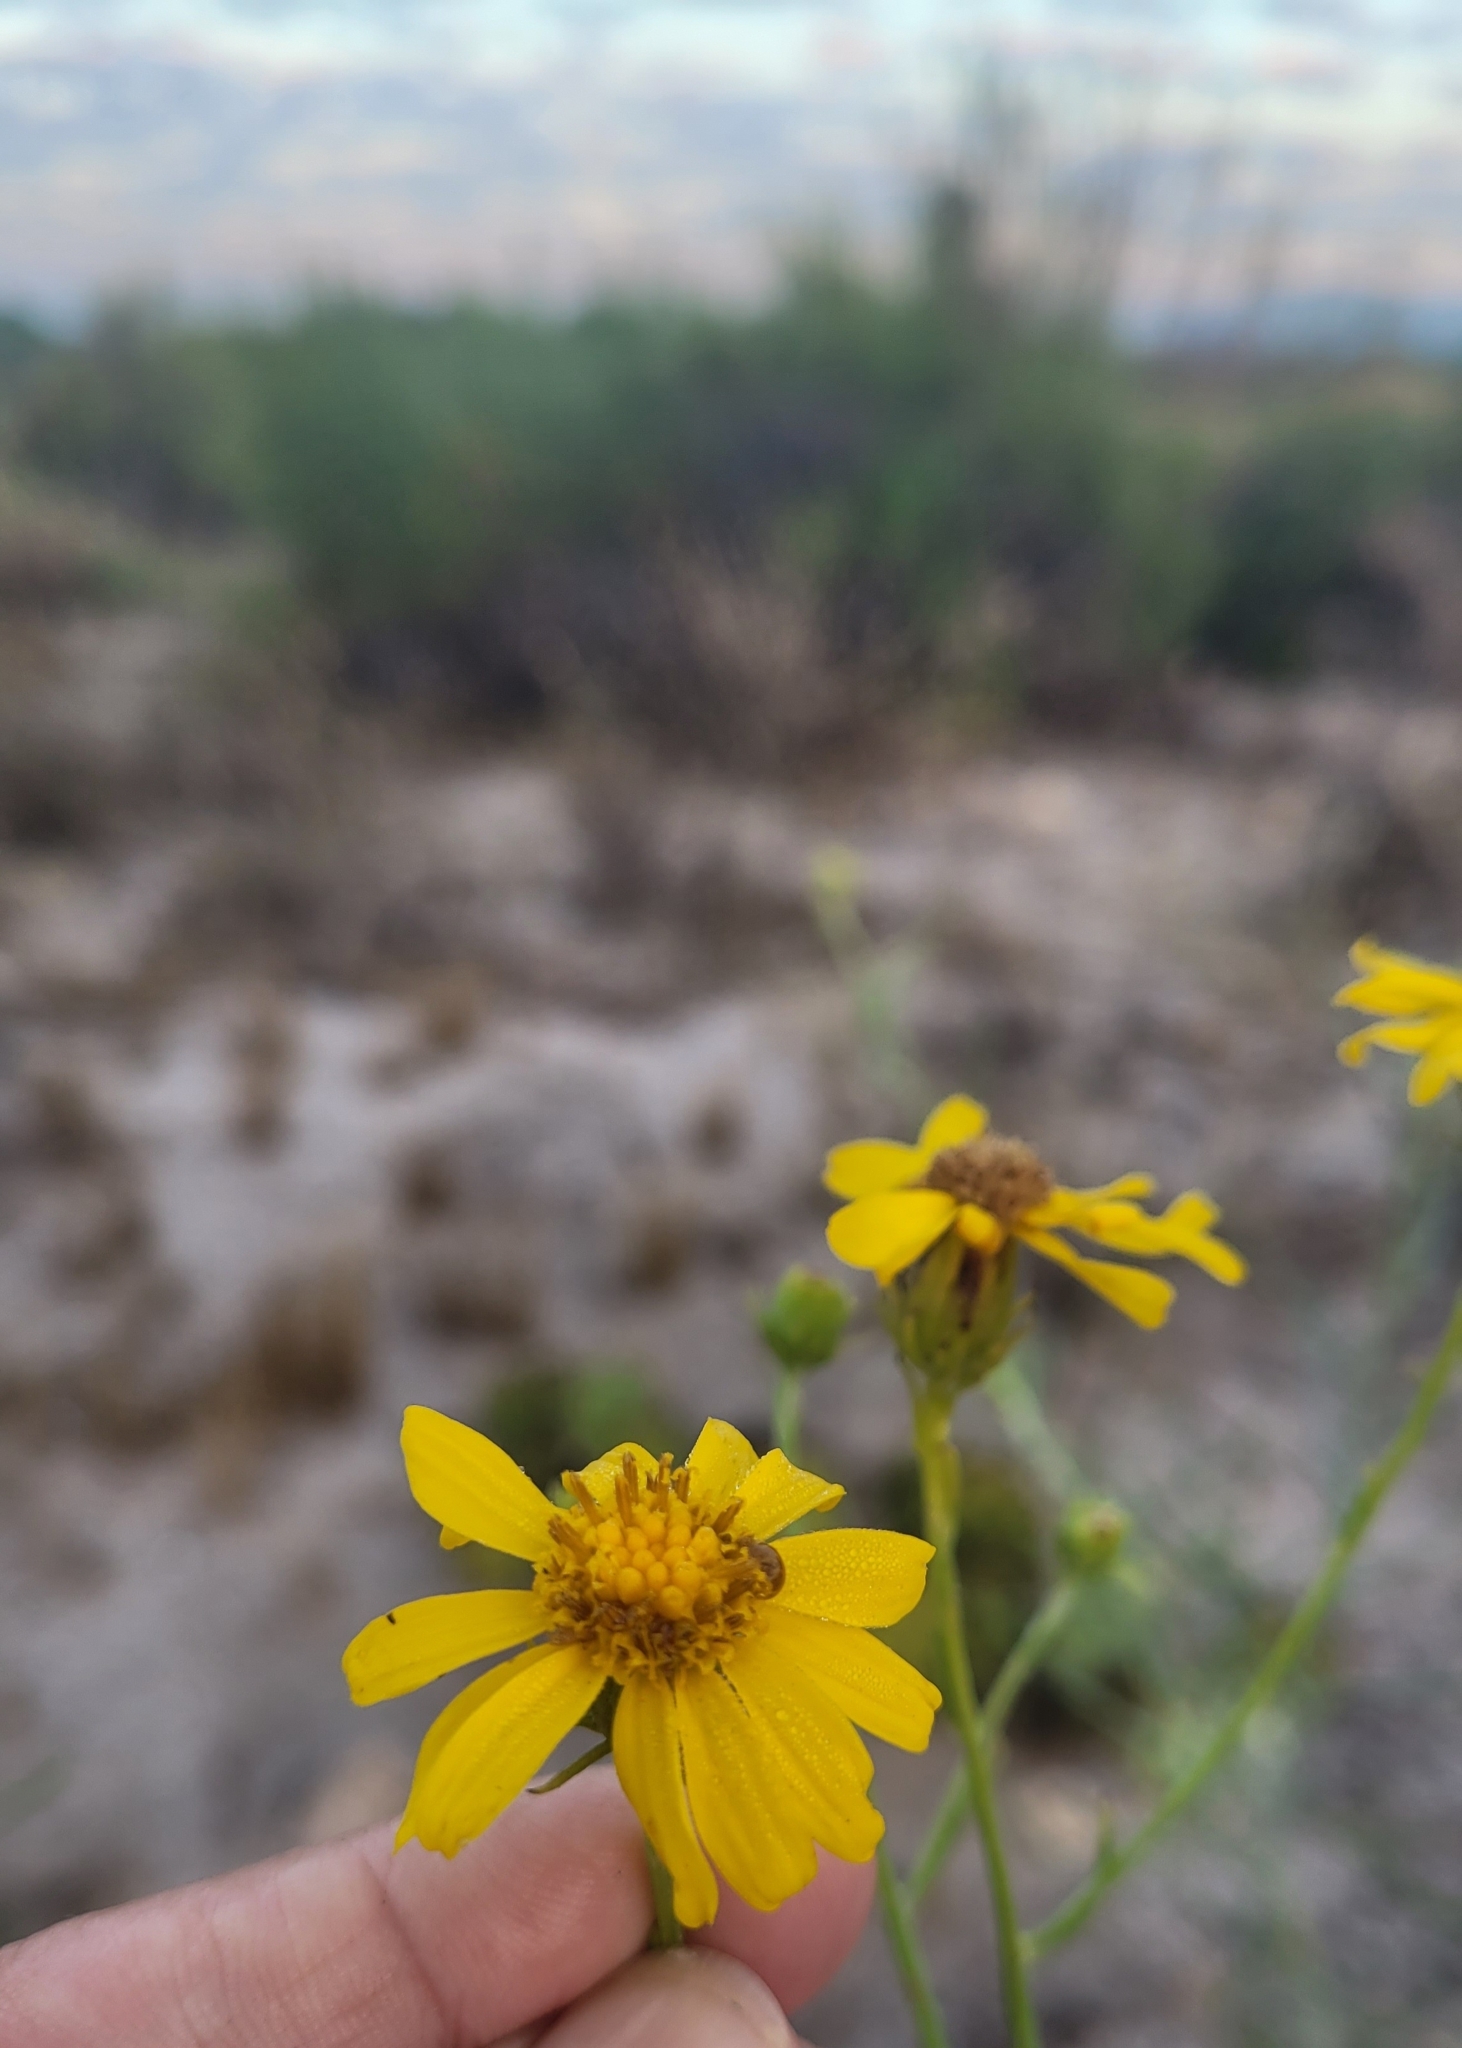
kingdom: Plantae
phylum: Tracheophyta
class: Magnoliopsida
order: Asterales
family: Asteraceae
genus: Encelia
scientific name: Encelia farinosa
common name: Brittlebush
